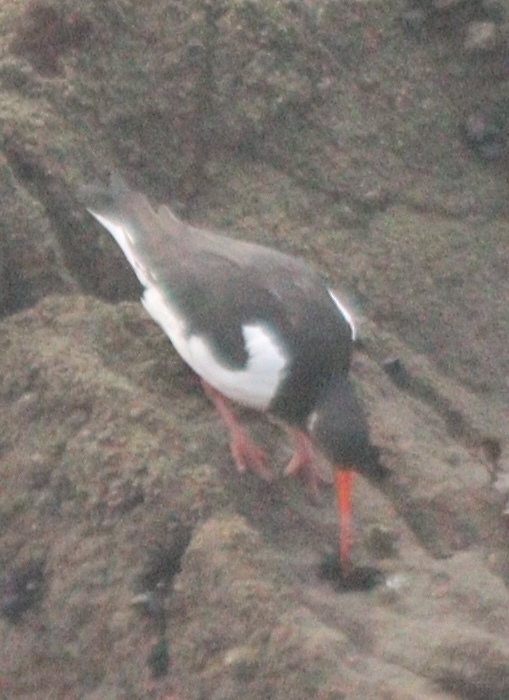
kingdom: Animalia
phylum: Chordata
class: Aves
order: Charadriiformes
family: Haematopodidae
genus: Haematopus
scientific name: Haematopus ostralegus
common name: Eurasian oystercatcher
